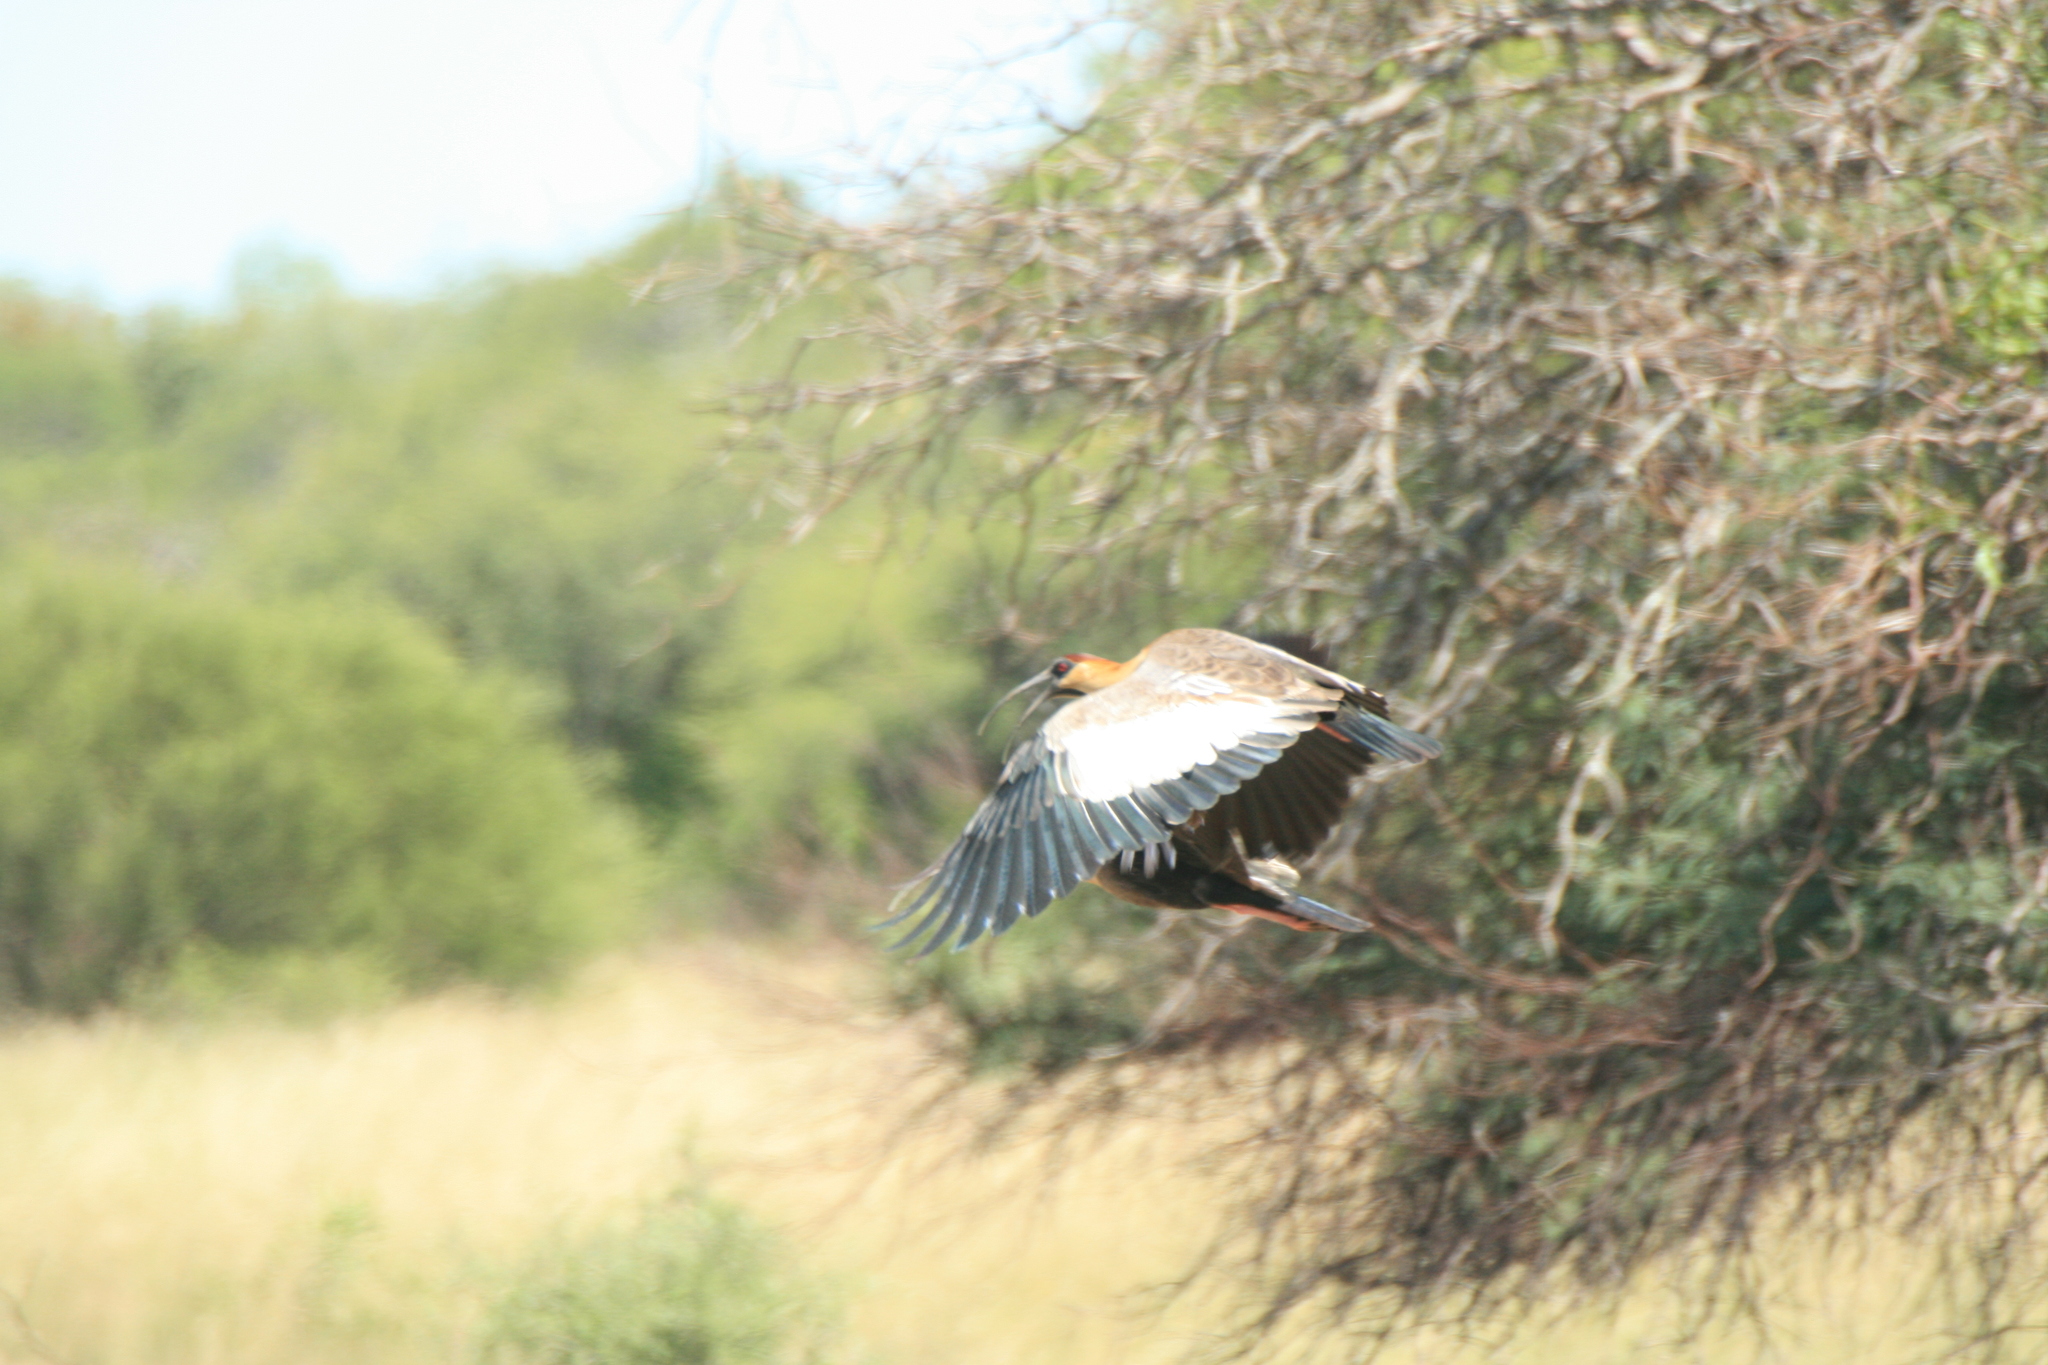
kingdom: Animalia
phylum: Chordata
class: Aves
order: Pelecaniformes
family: Threskiornithidae
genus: Theristicus
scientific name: Theristicus caudatus
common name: Buff-necked ibis
